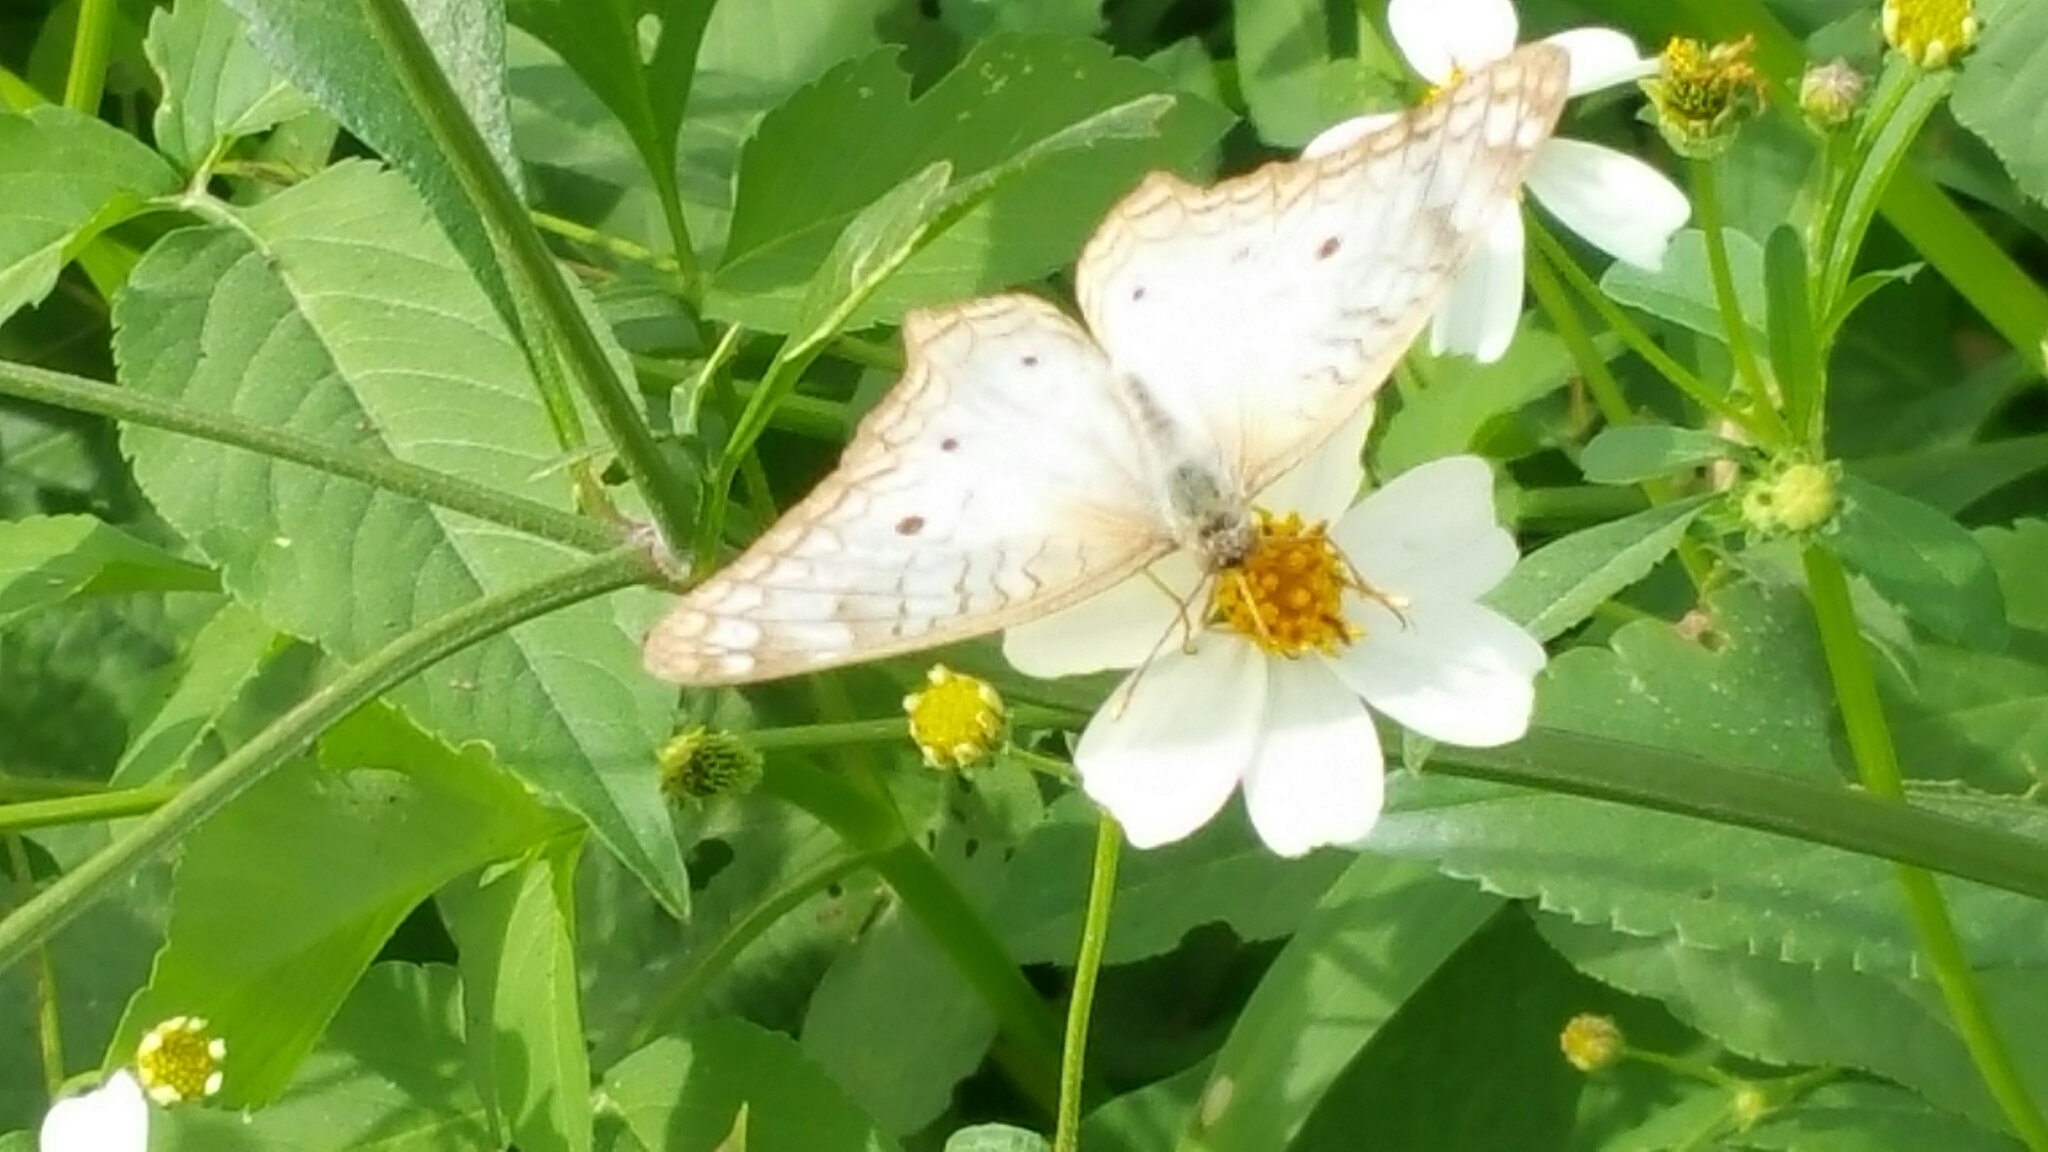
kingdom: Animalia
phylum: Arthropoda
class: Insecta
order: Lepidoptera
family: Nymphalidae
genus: Anartia
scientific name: Anartia jatrophae
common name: White peacock
